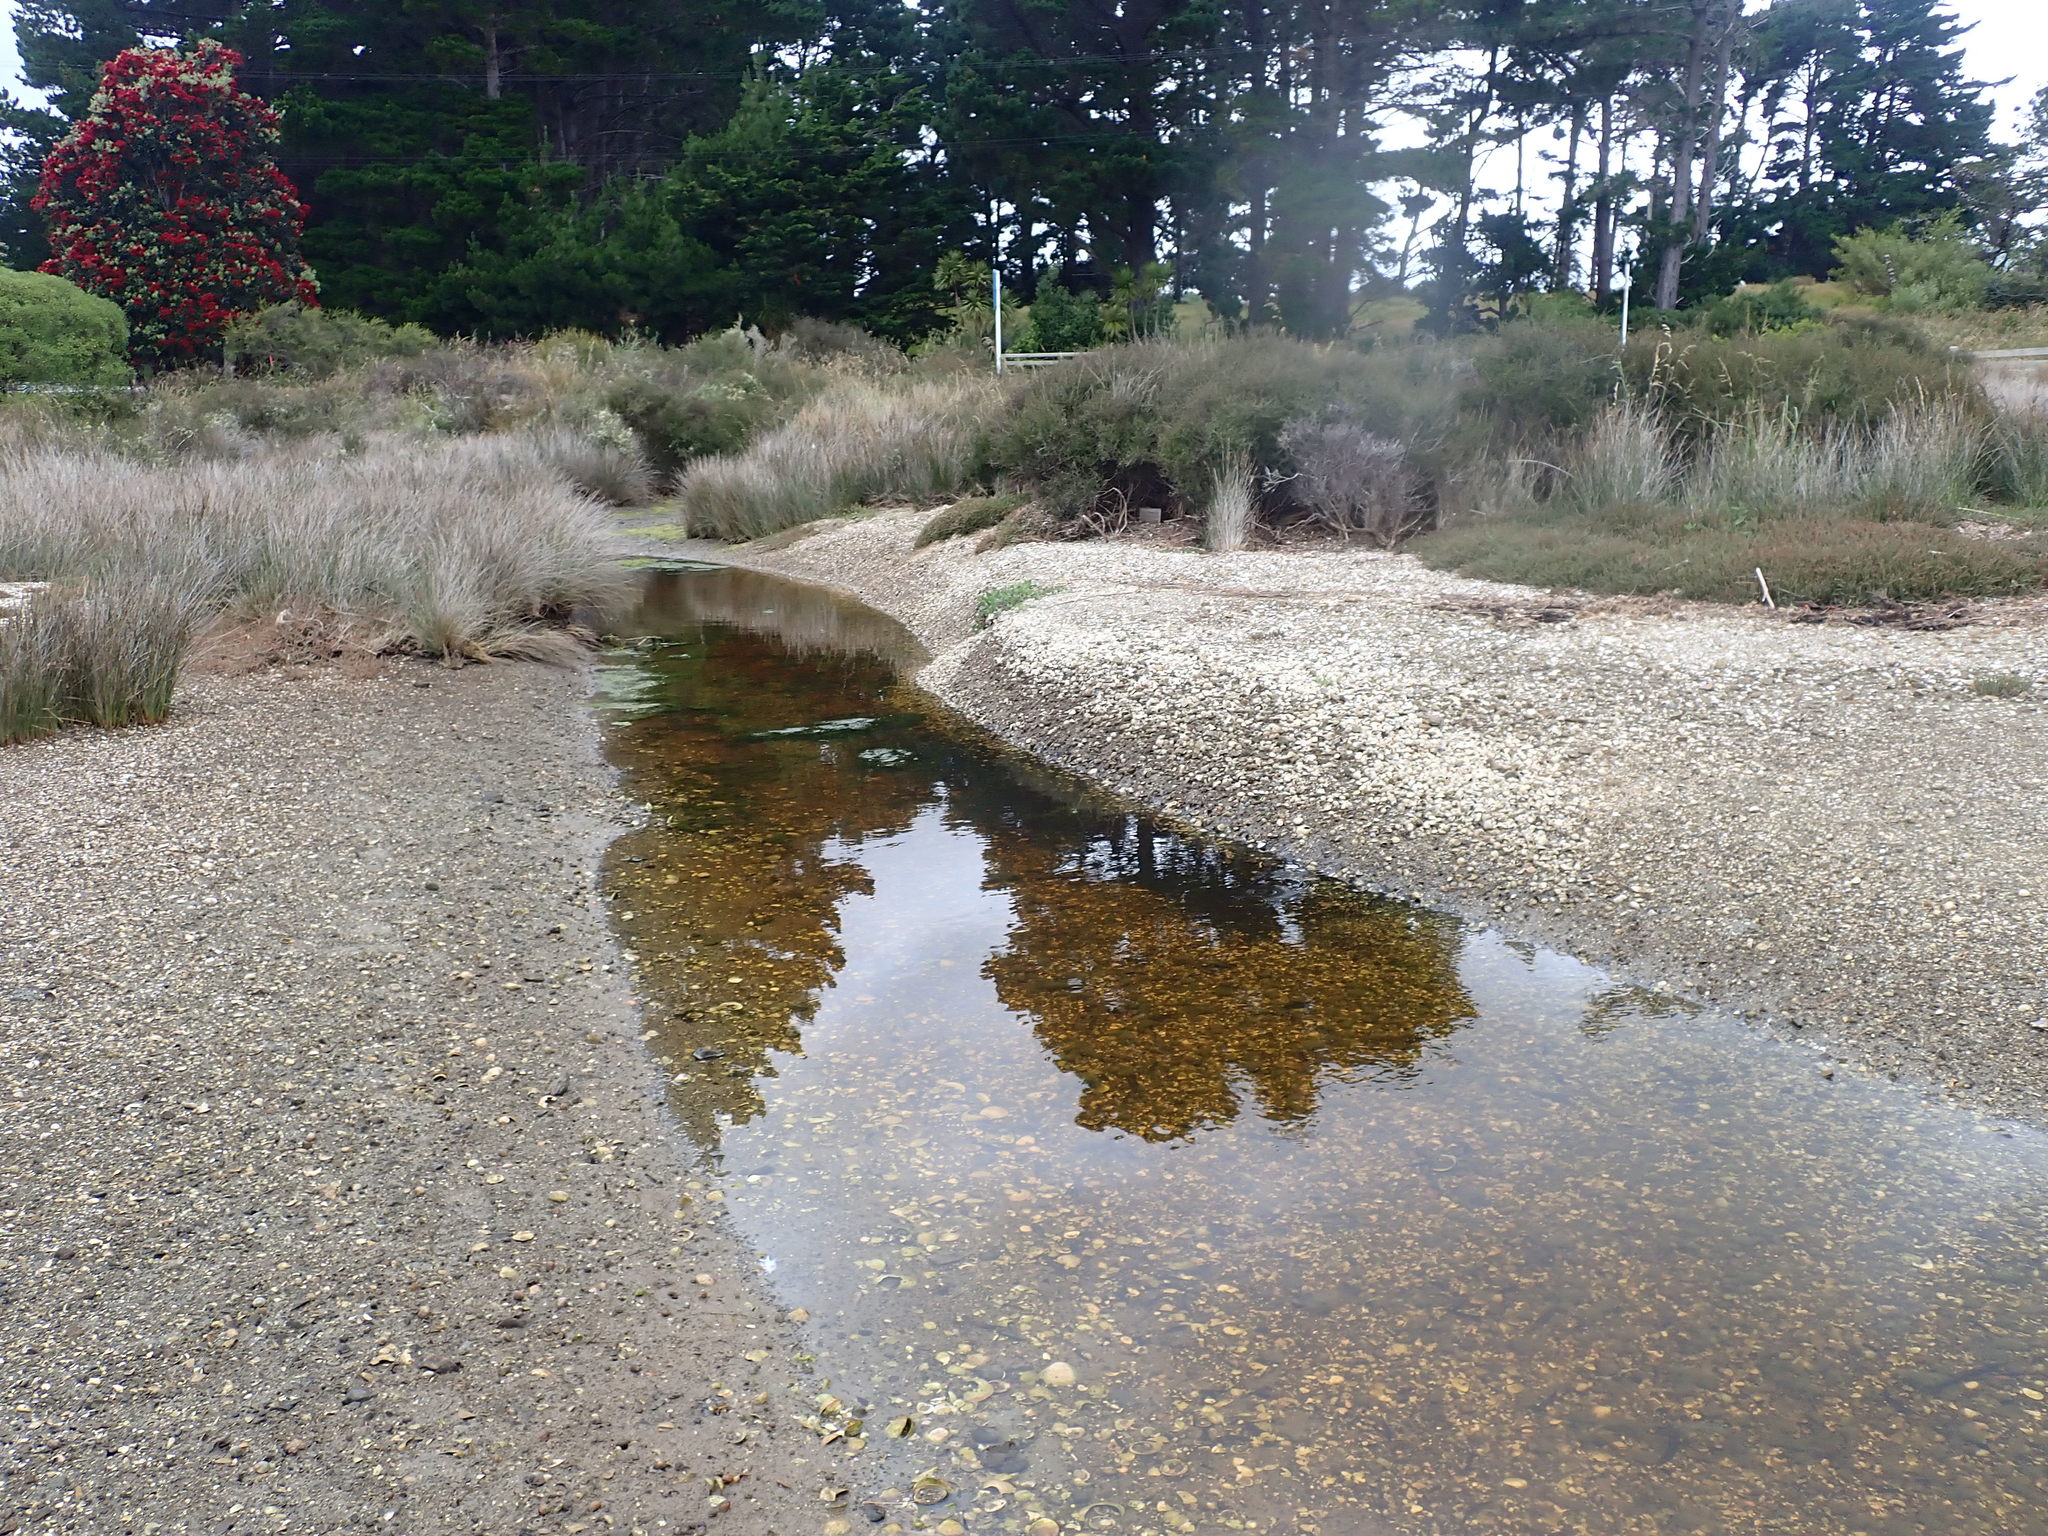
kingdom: Animalia
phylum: Mollusca
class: Gastropoda
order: Littorinimorpha
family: Tateidae
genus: Potamopyrgus
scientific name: Potamopyrgus estuarinus
